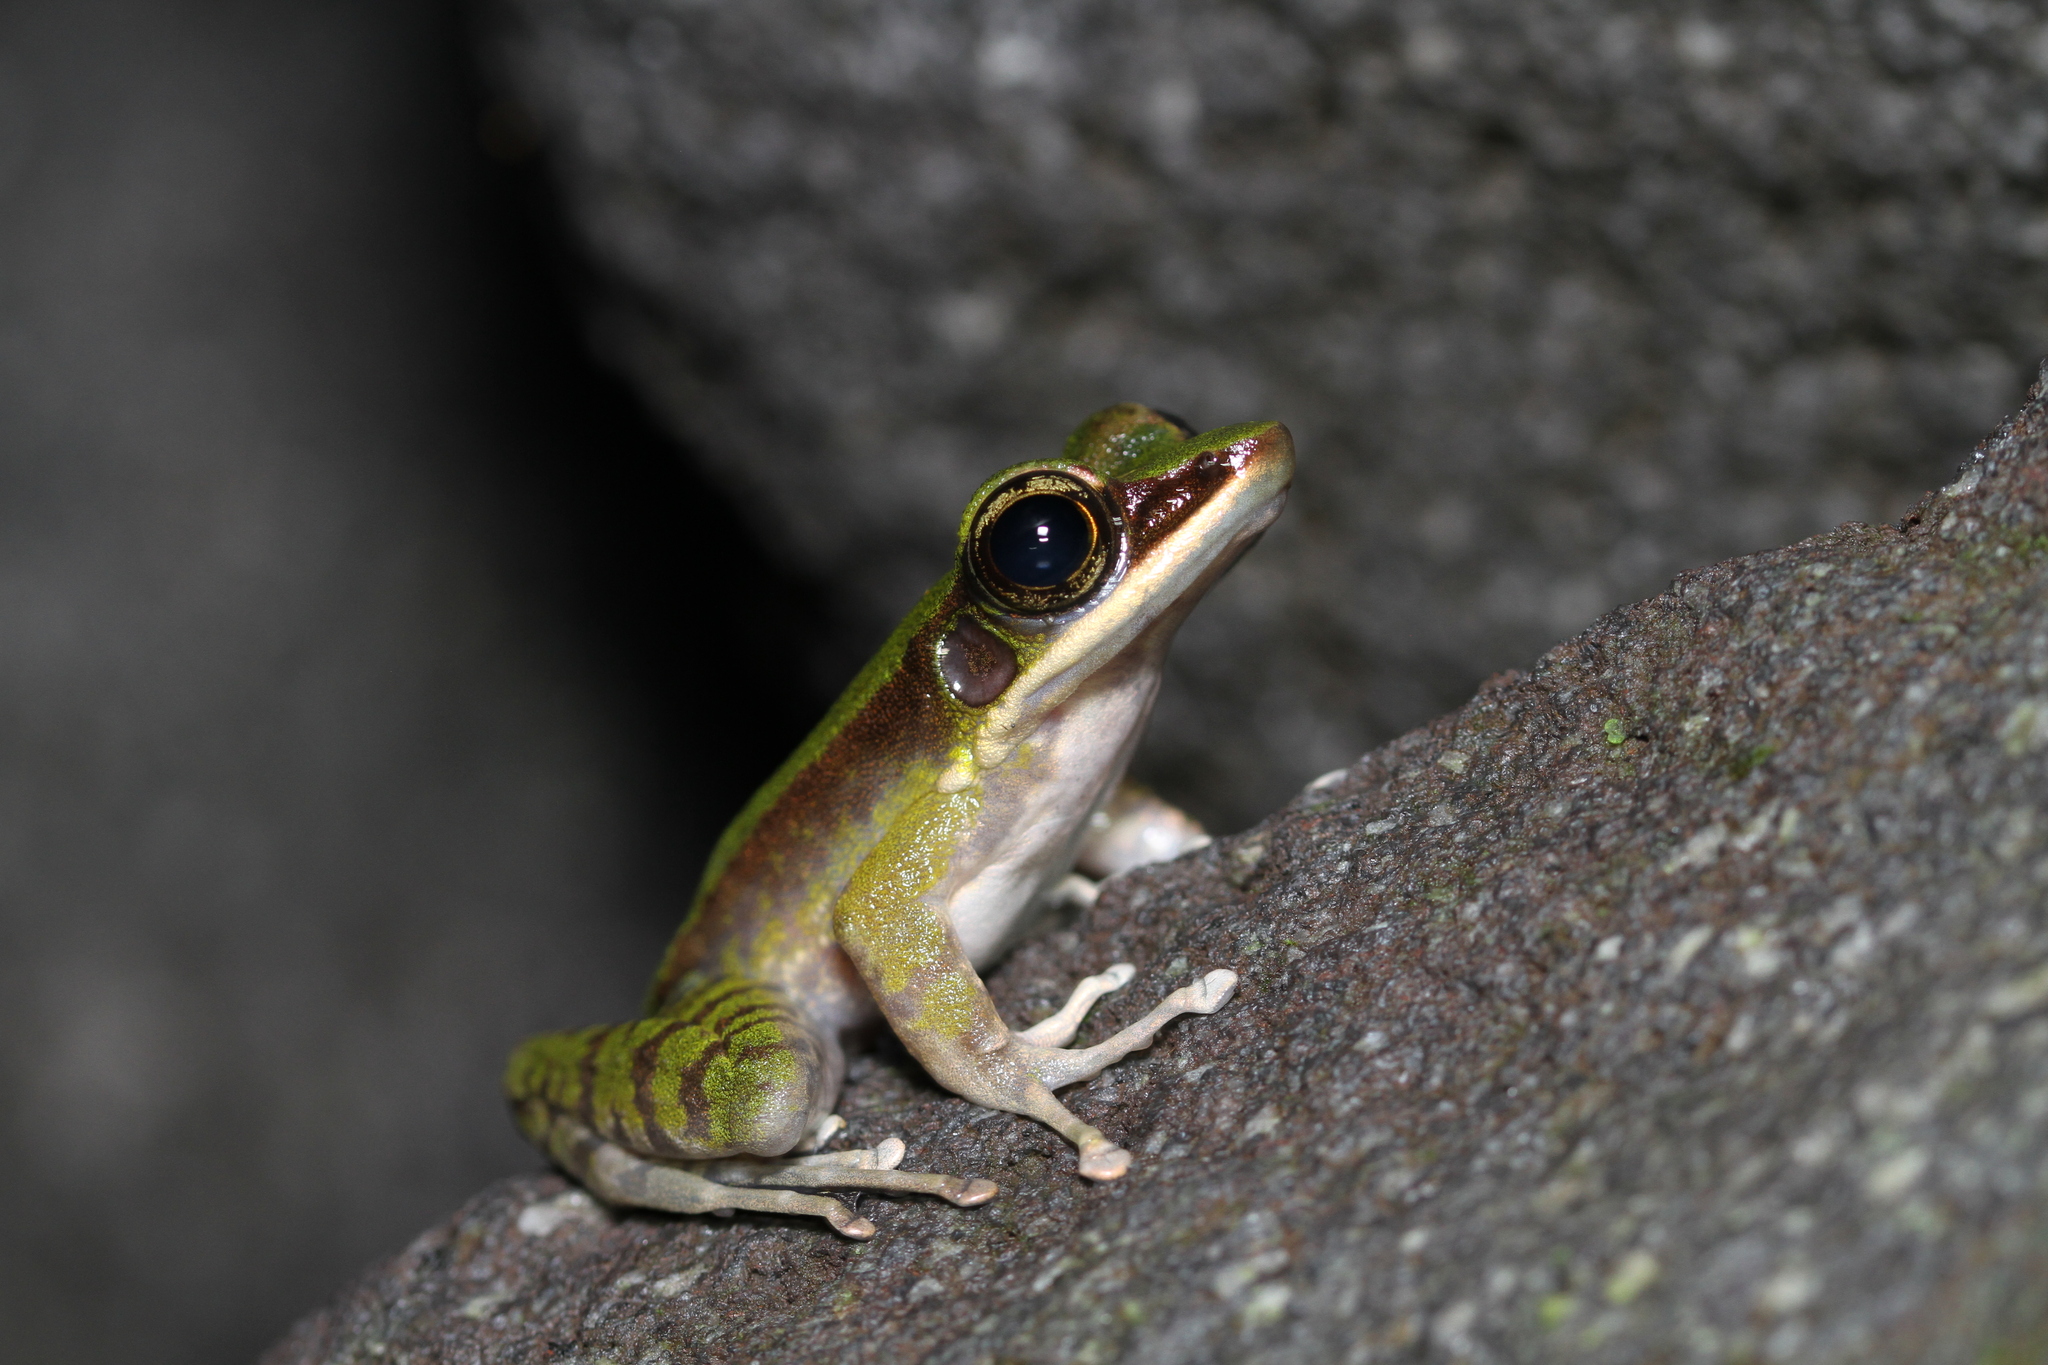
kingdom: Animalia
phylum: Chordata
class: Amphibia
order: Anura
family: Ranidae
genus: Odorrana
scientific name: Odorrana hosii
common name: Green tree frog
